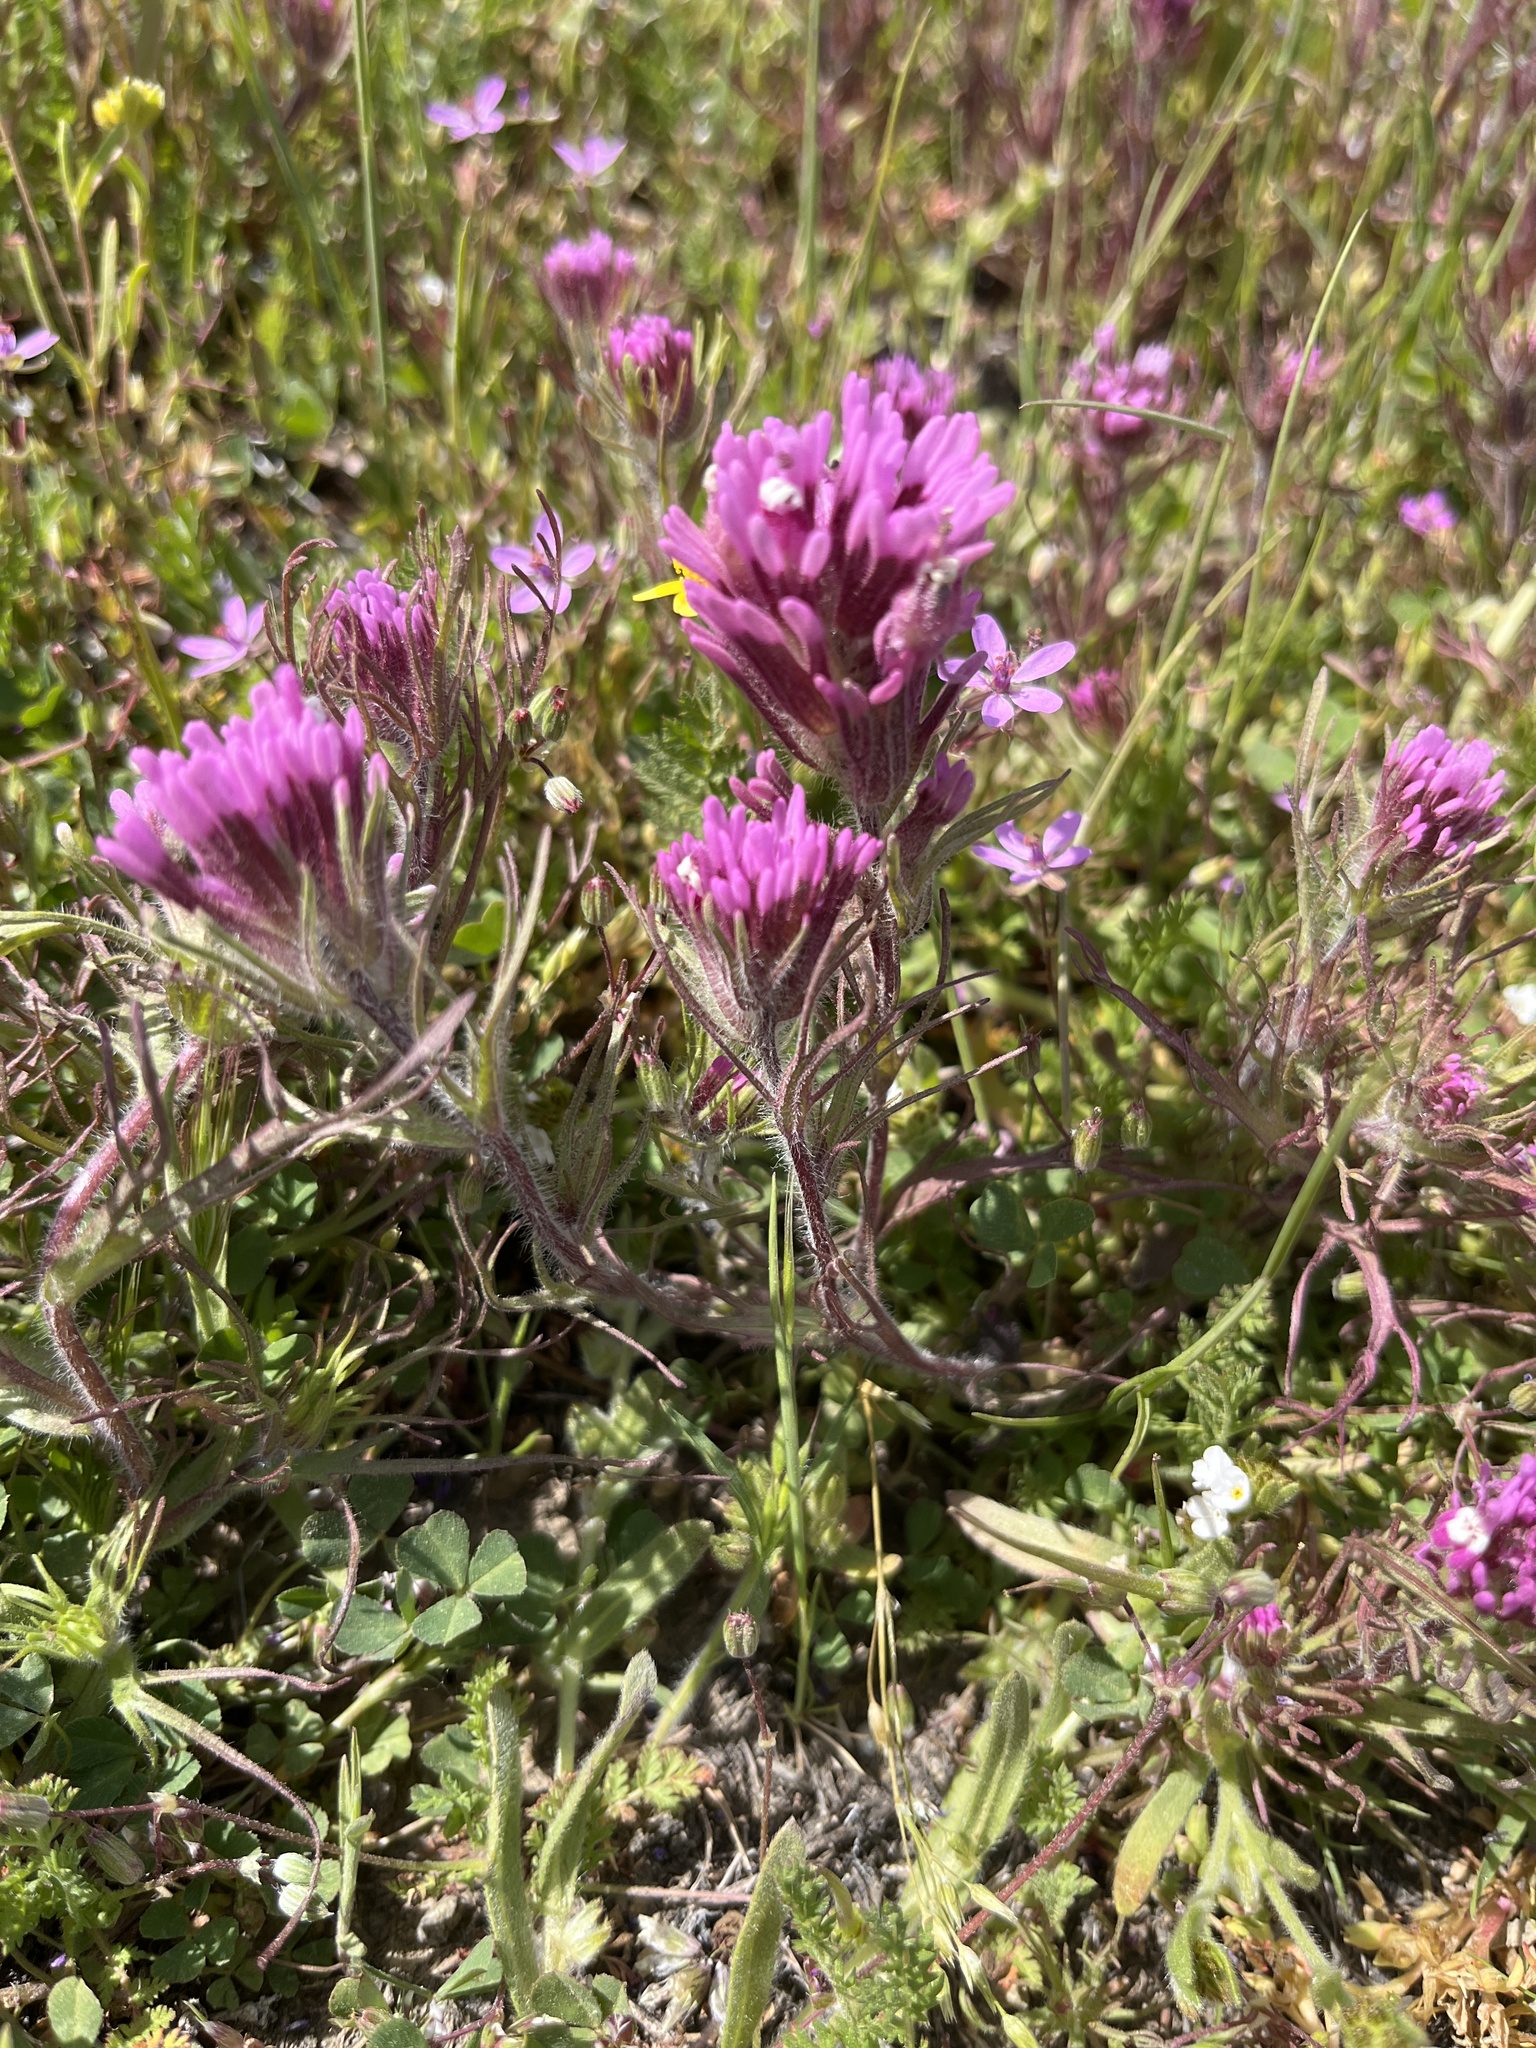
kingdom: Plantae
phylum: Tracheophyta
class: Magnoliopsida
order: Lamiales
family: Orobanchaceae
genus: Castilleja
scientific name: Castilleja exserta
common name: Purple owl-clover
